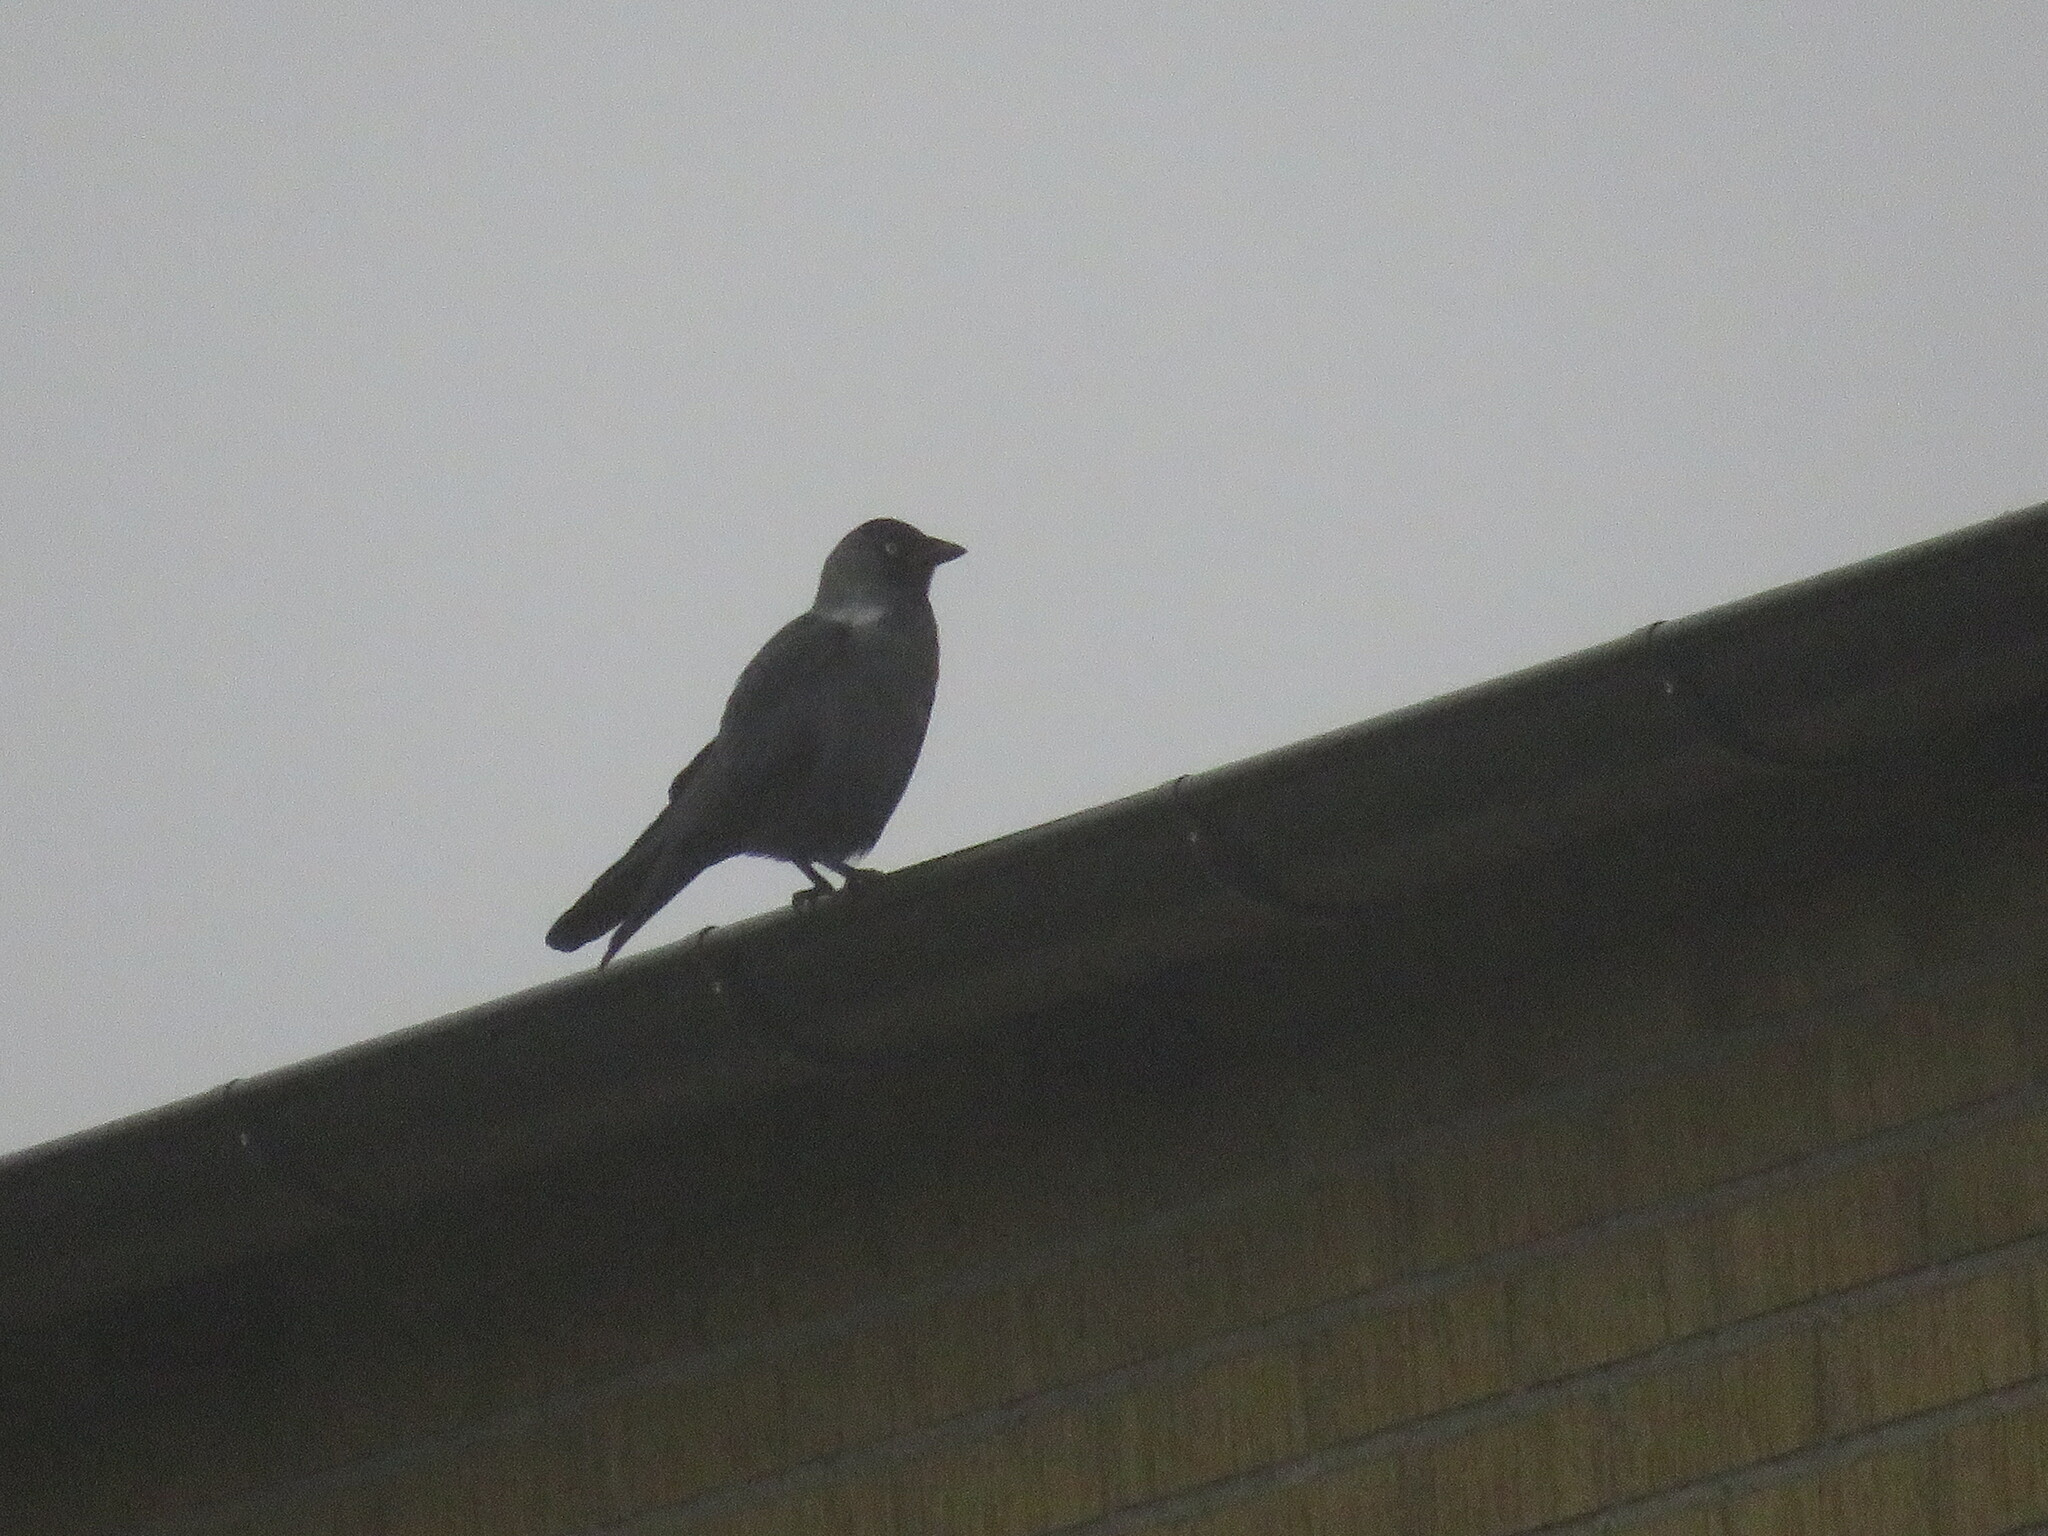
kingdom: Animalia
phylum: Chordata
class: Aves
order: Passeriformes
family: Corvidae
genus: Coloeus
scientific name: Coloeus monedula
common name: Western jackdaw
